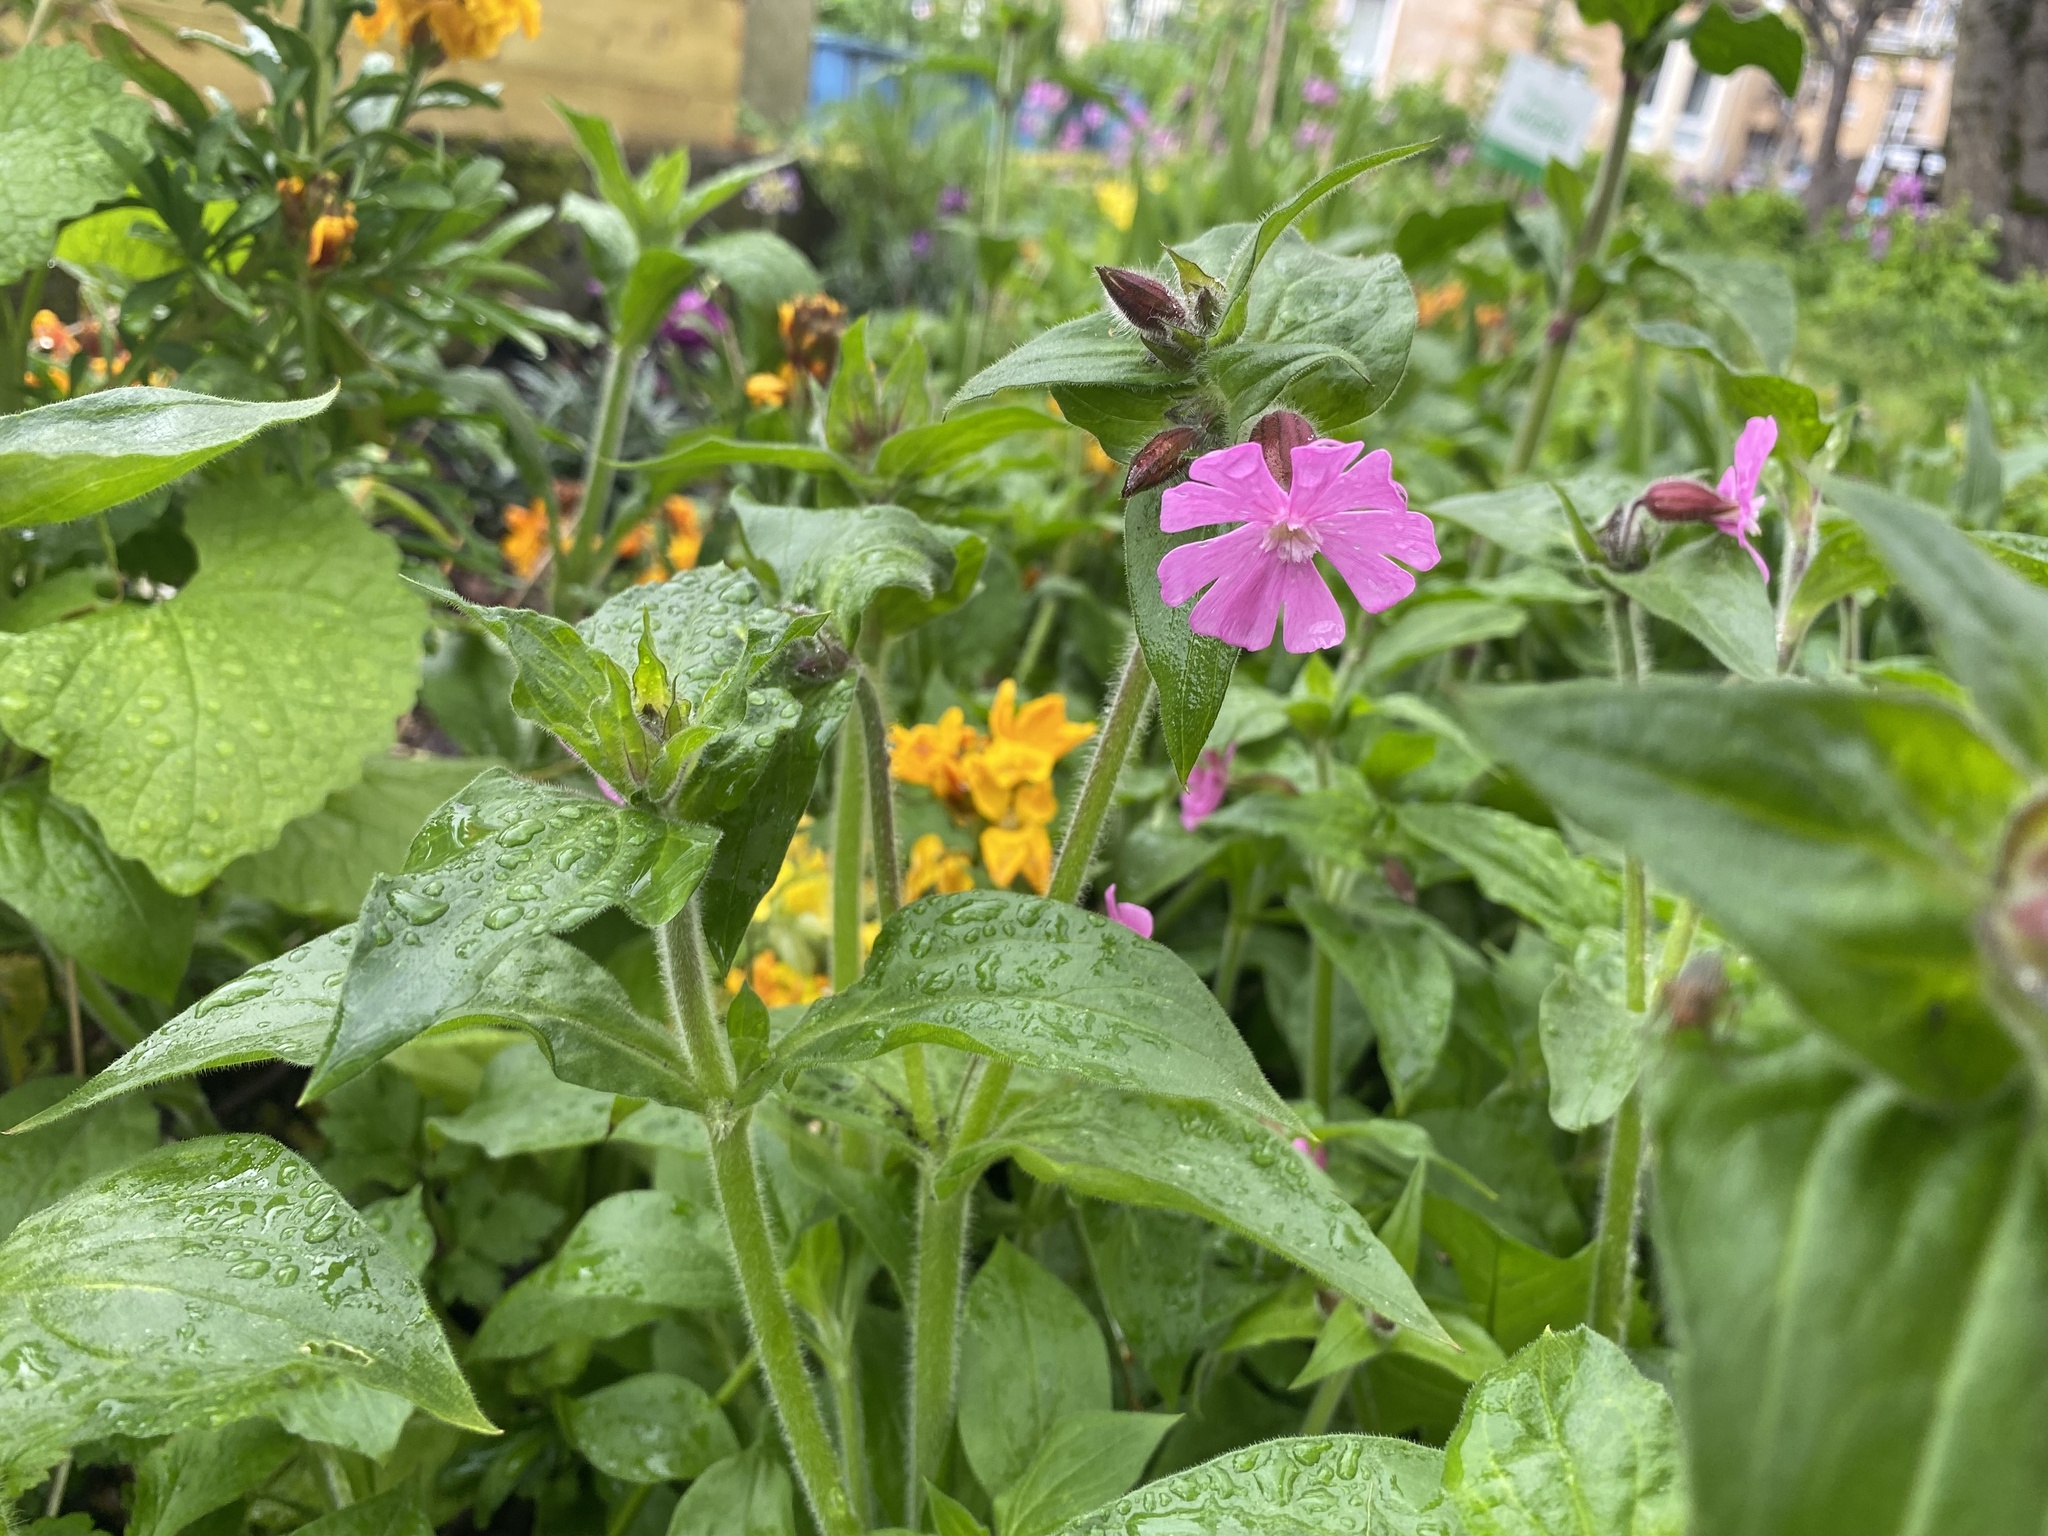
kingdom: Plantae
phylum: Tracheophyta
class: Magnoliopsida
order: Caryophyllales
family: Caryophyllaceae
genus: Silene
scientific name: Silene dioica
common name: Red campion
